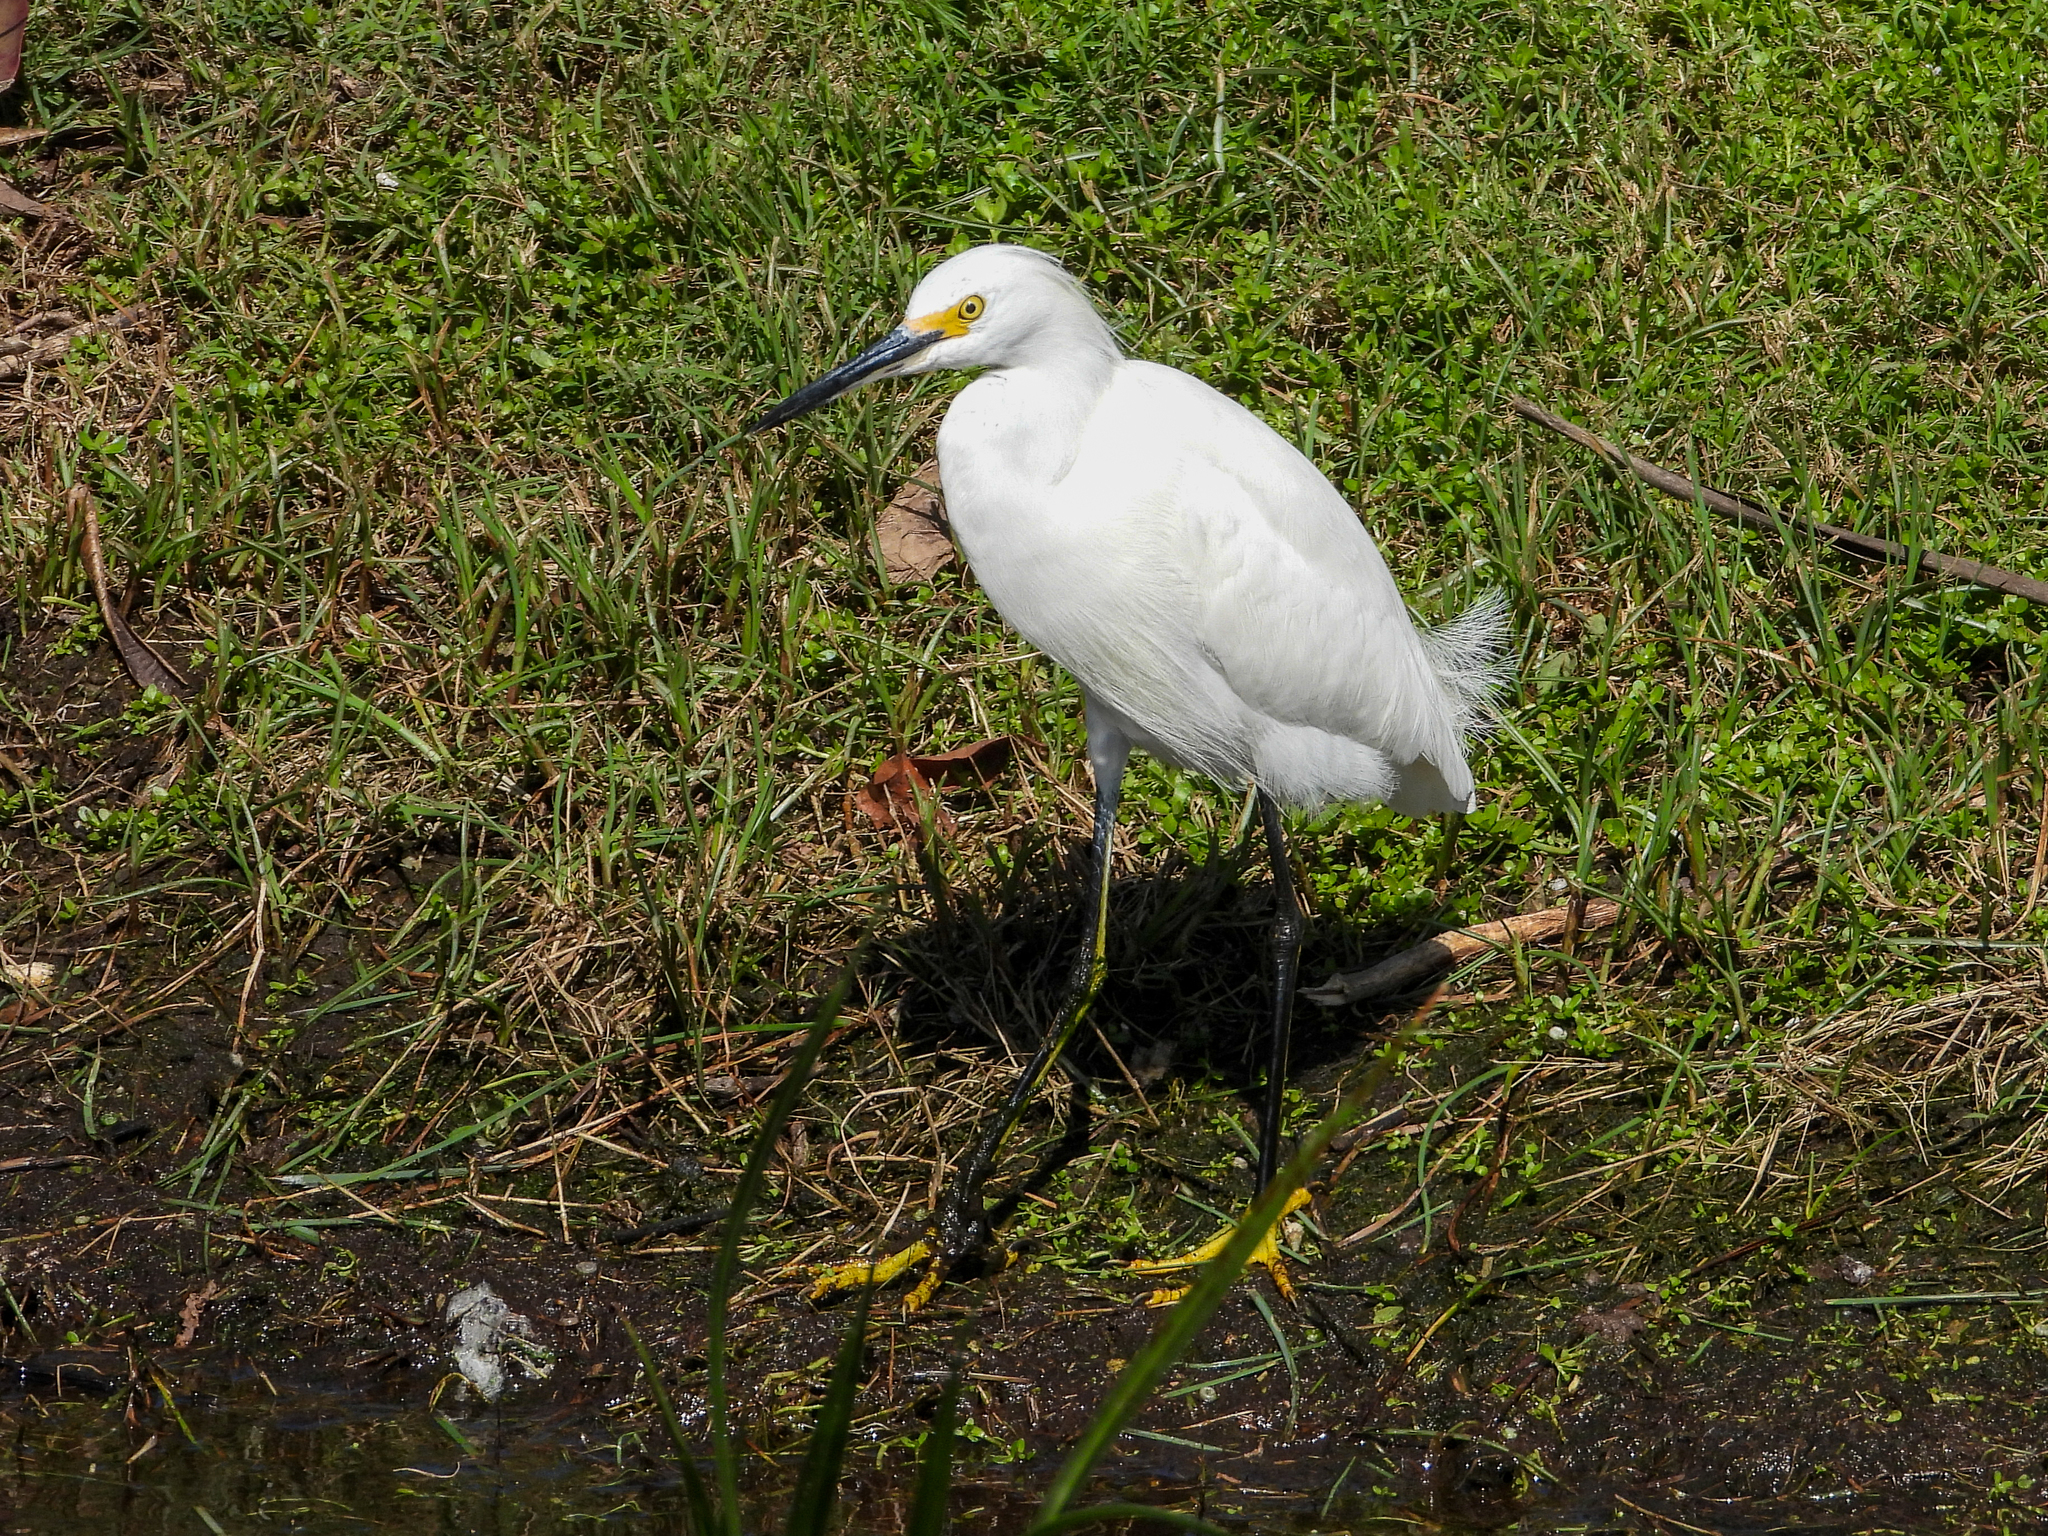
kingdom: Animalia
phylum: Chordata
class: Aves
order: Pelecaniformes
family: Ardeidae
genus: Egretta
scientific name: Egretta thula
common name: Snowy egret
